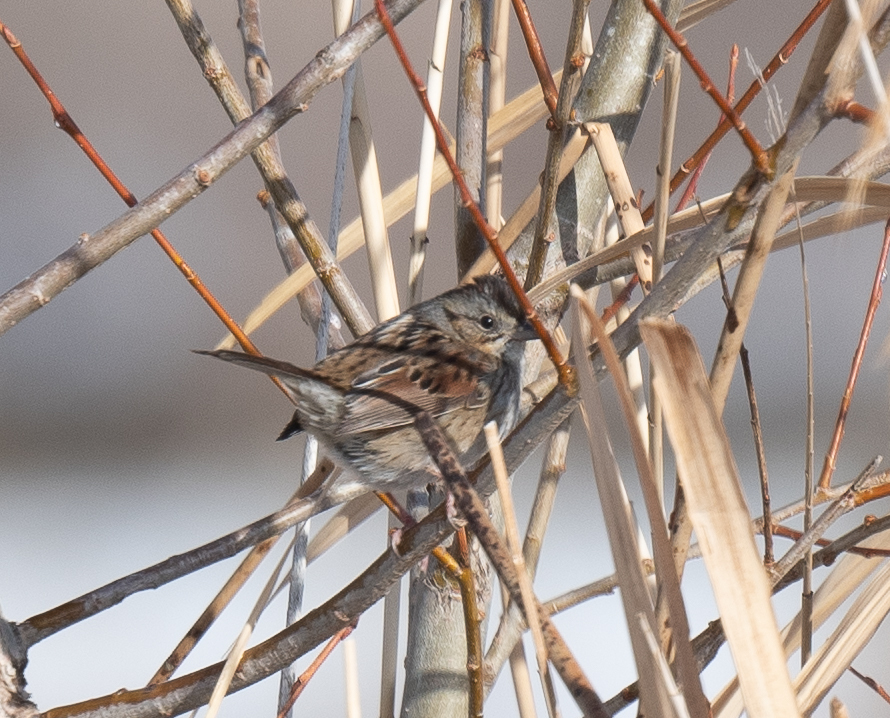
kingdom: Animalia
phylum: Chordata
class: Aves
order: Passeriformes
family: Passerellidae
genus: Melospiza
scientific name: Melospiza georgiana
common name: Swamp sparrow
